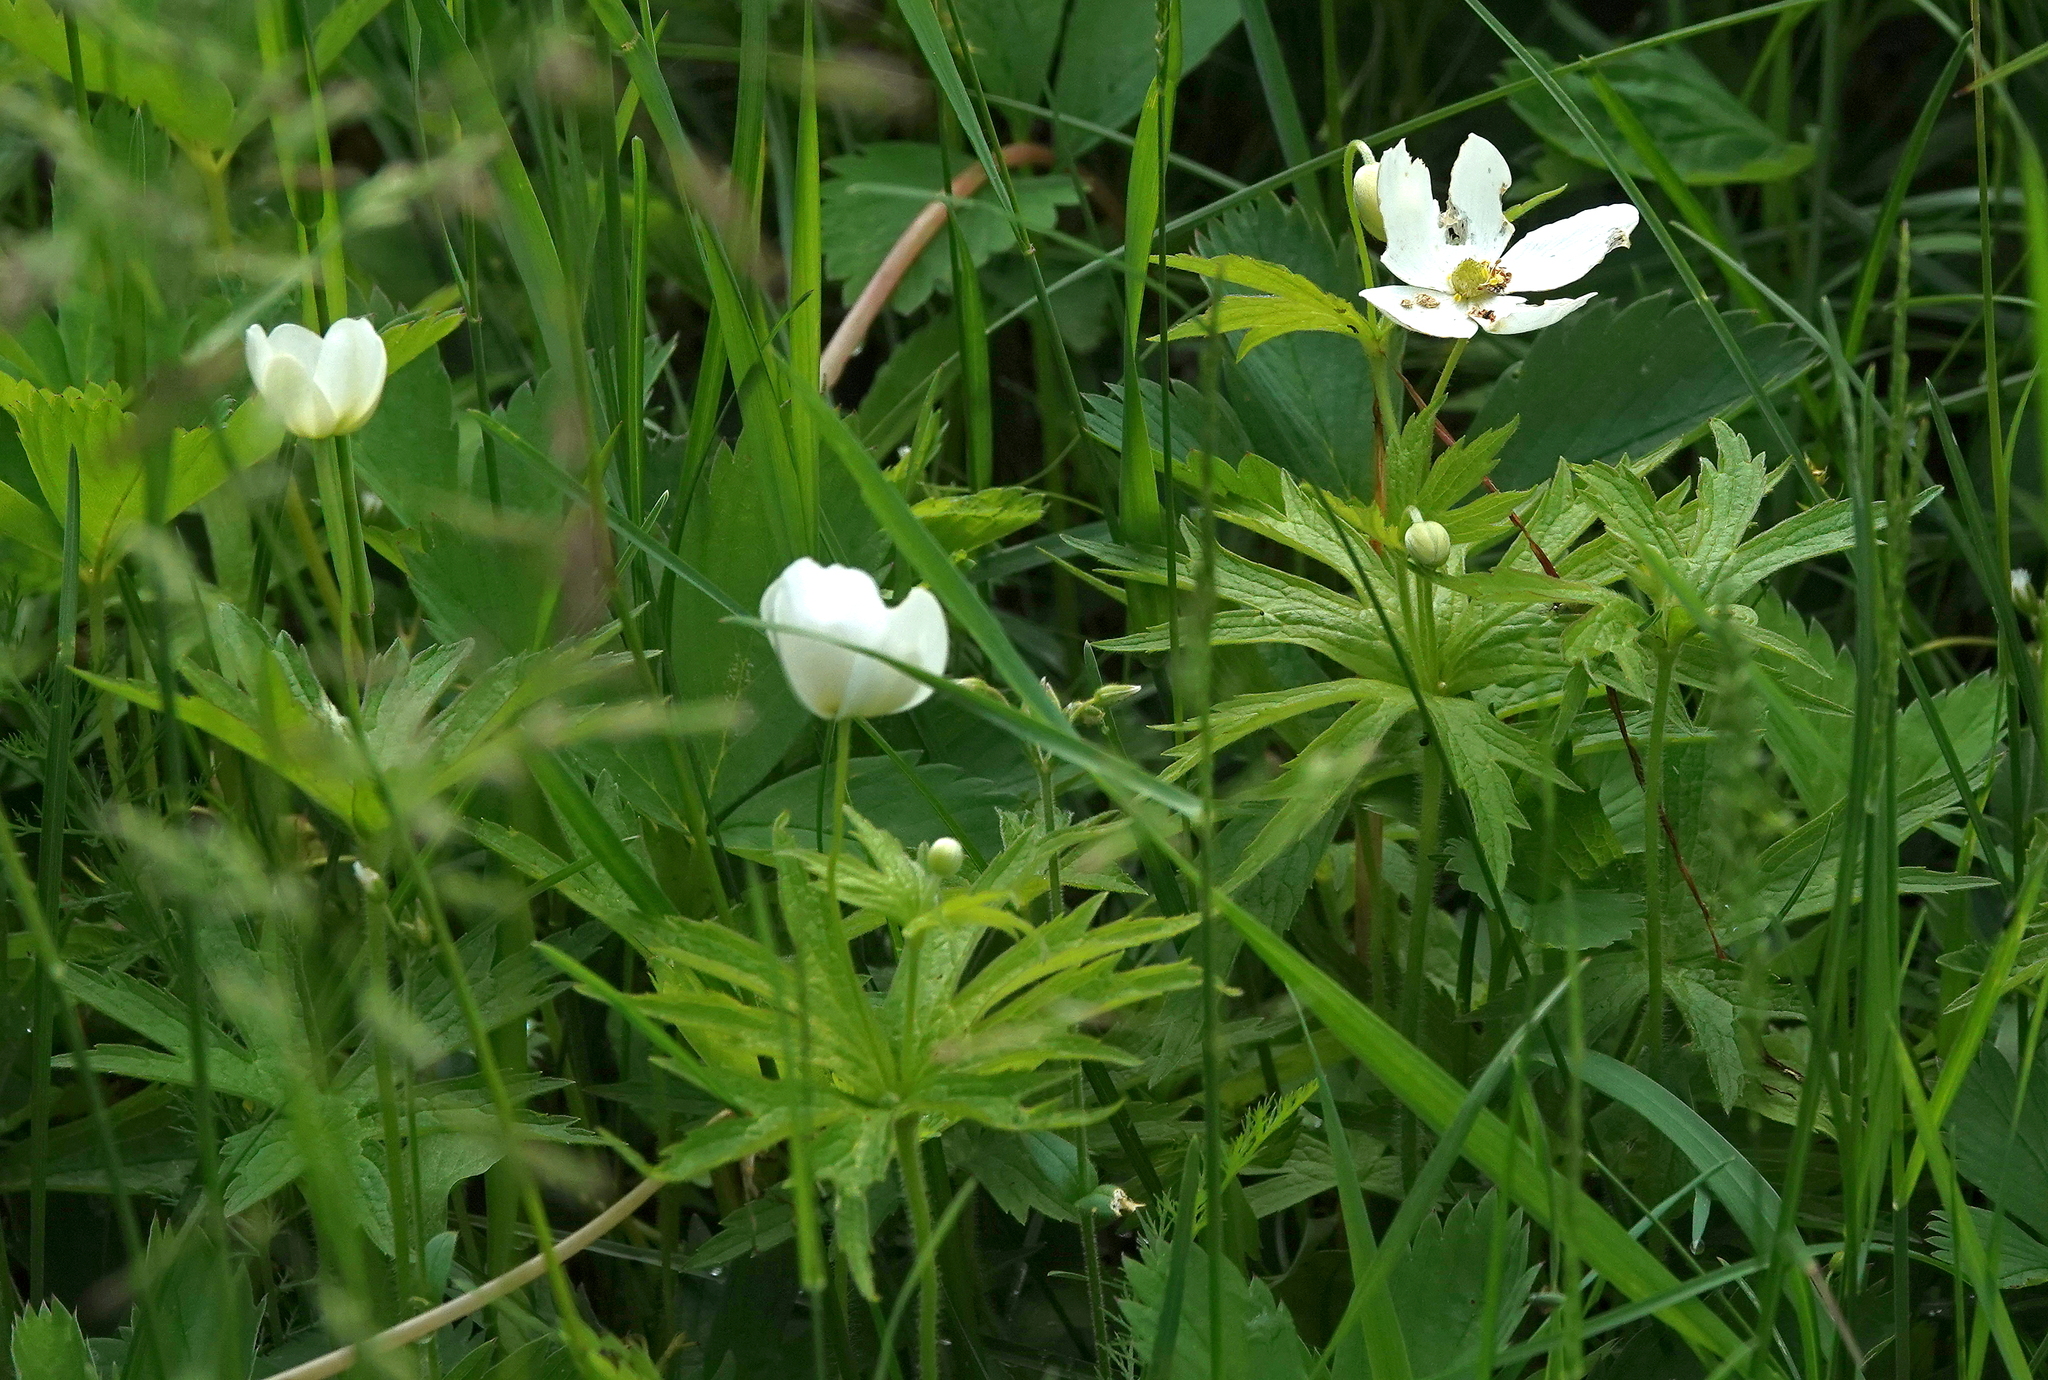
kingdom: Plantae
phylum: Tracheophyta
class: Magnoliopsida
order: Ranunculales
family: Ranunculaceae
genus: Anemonastrum
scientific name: Anemonastrum canadense
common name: Canada anemone
